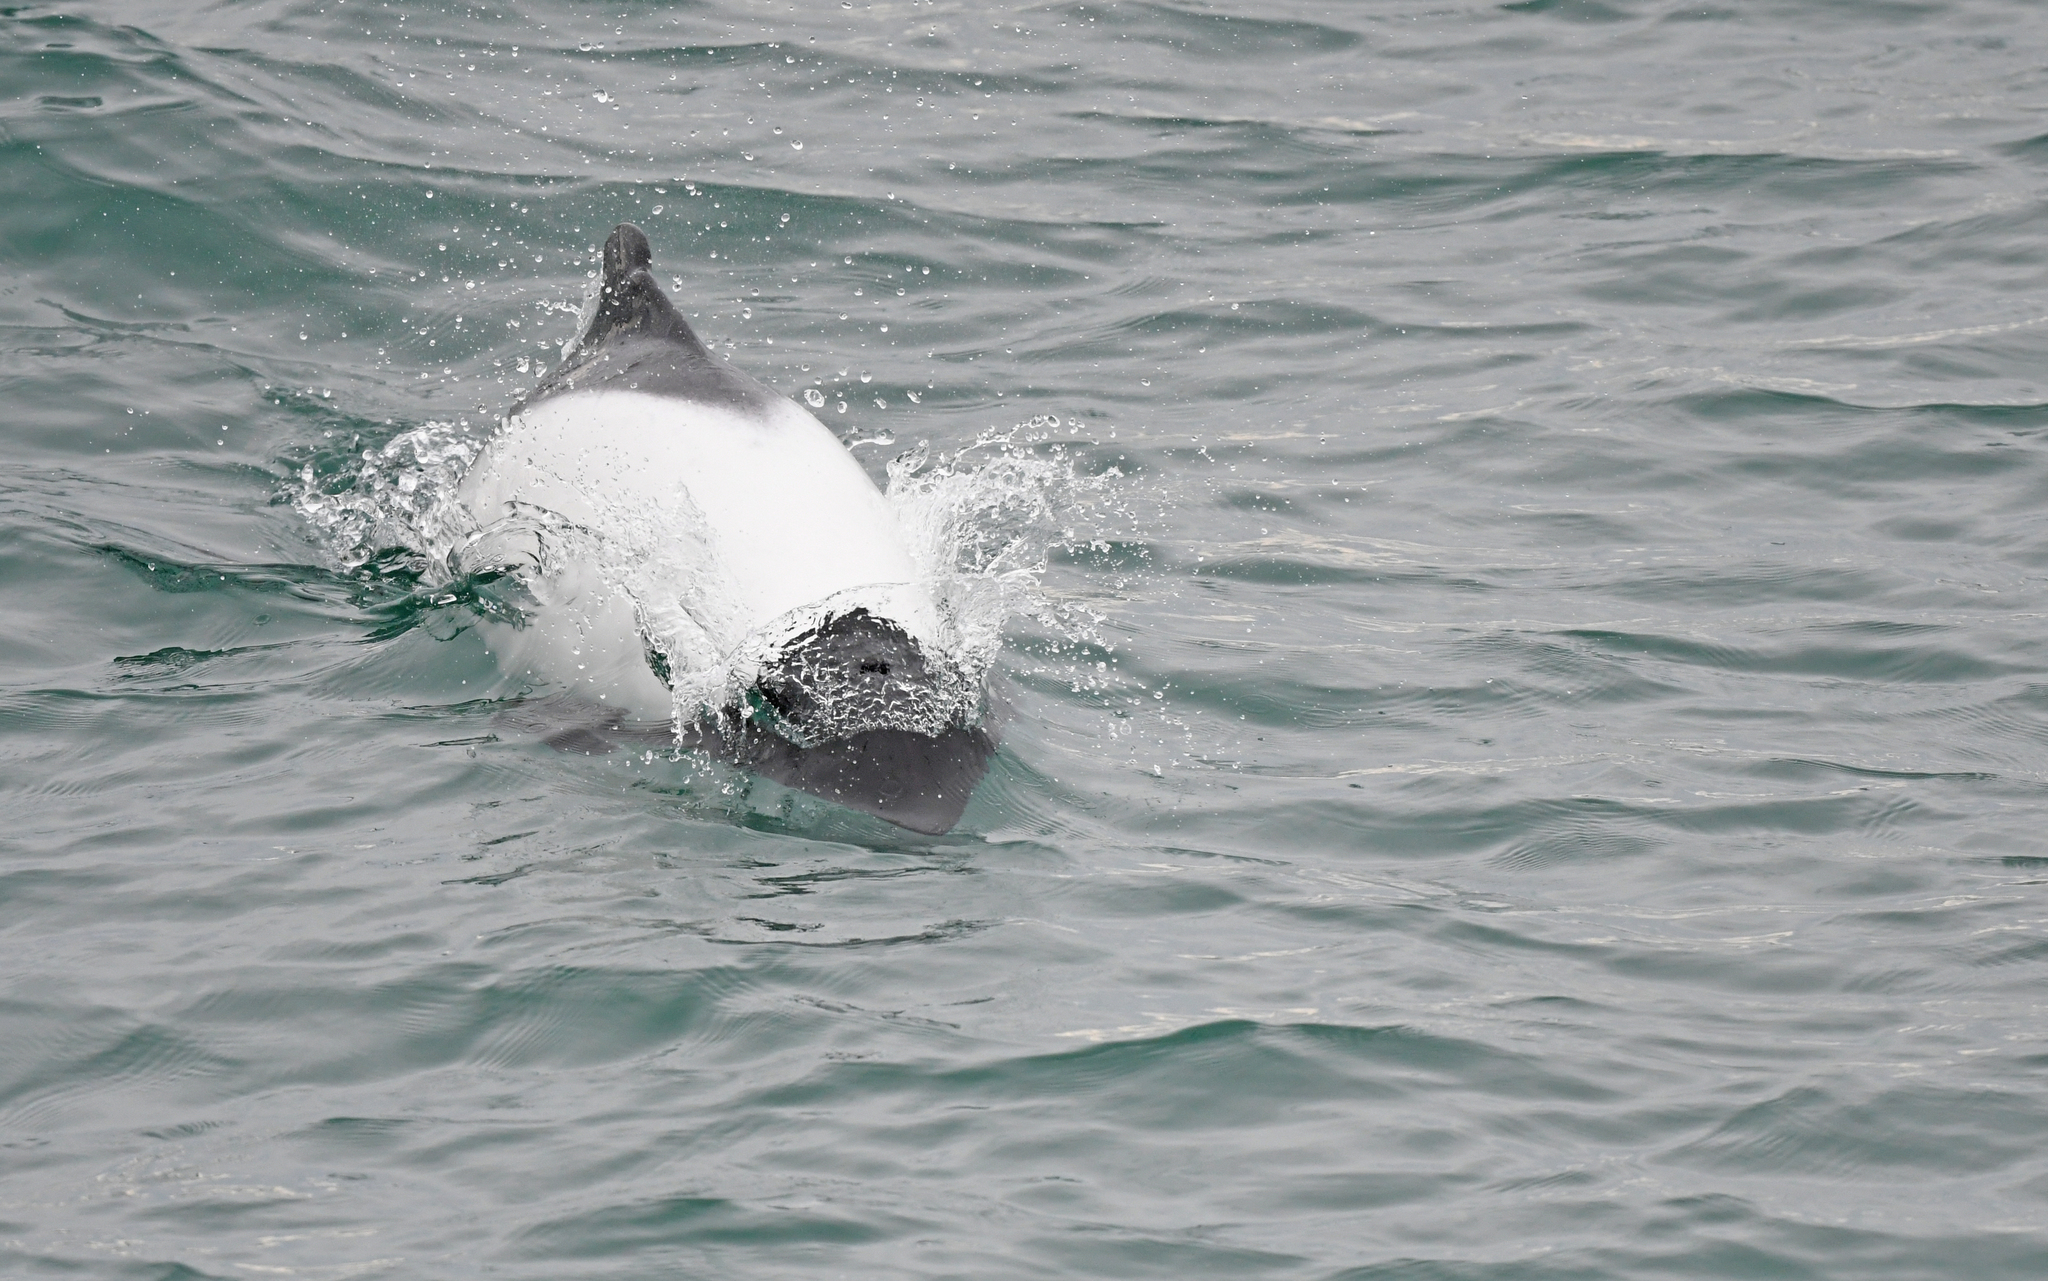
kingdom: Animalia
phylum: Chordata
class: Mammalia
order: Cetacea
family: Delphinidae
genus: Cephalorhynchus
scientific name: Cephalorhynchus commersonii
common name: Commerson's dolphin
